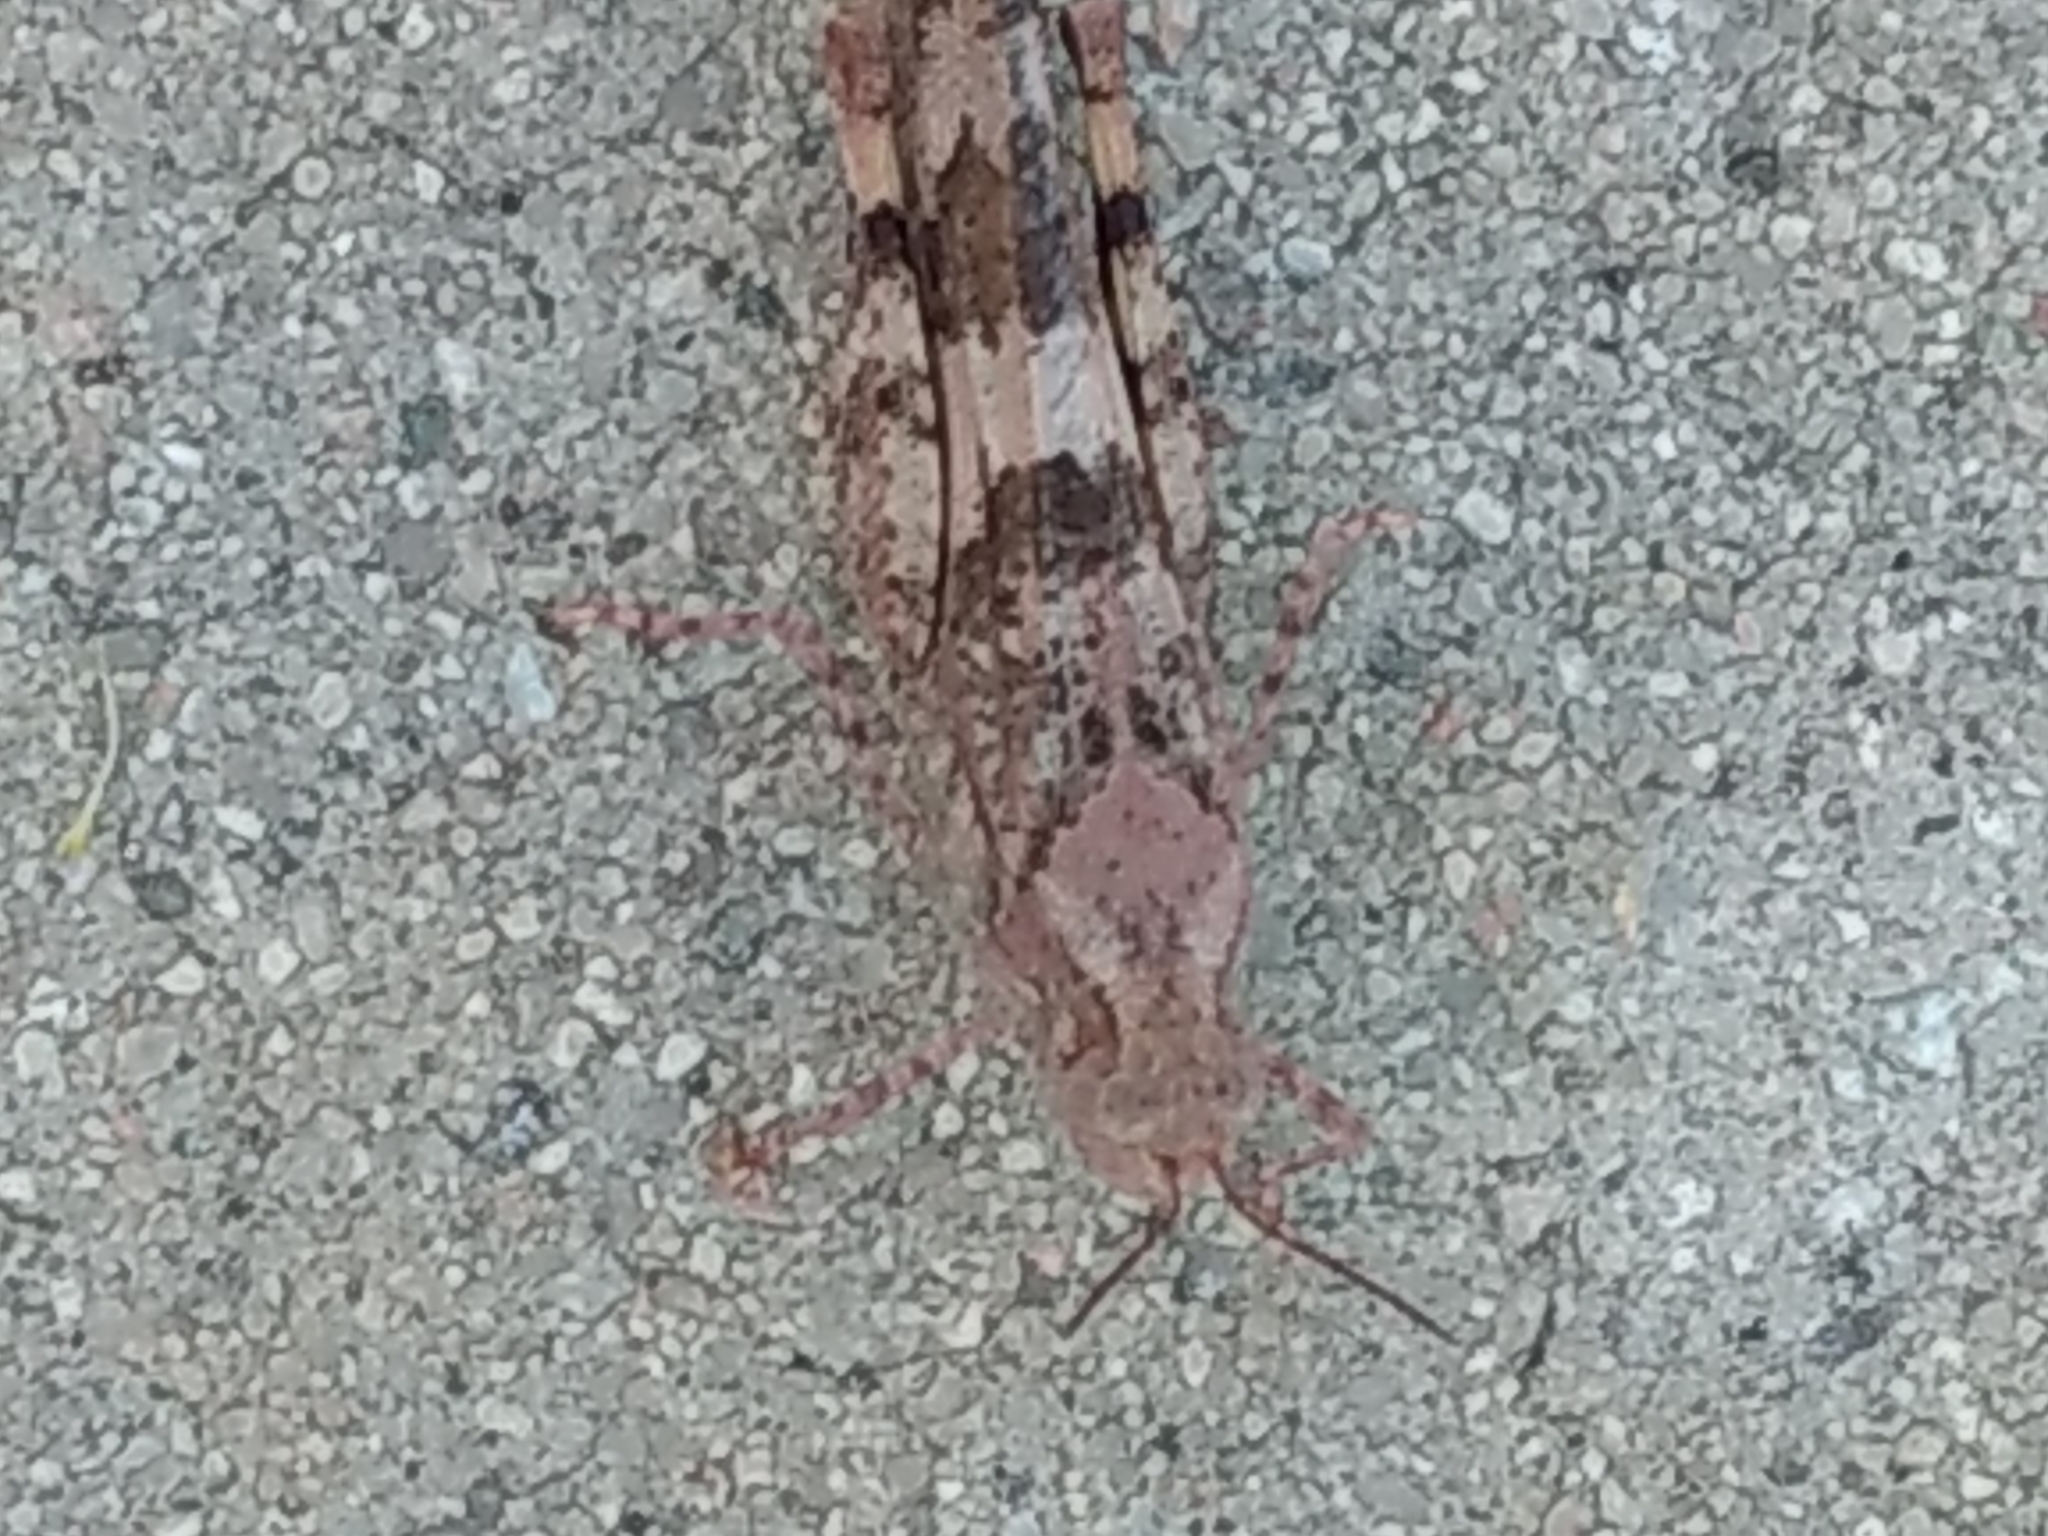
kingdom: Animalia
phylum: Arthropoda
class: Insecta
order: Orthoptera
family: Acrididae
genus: Trimerotropis
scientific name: Trimerotropis pallidipennis
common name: Pallid-winged grasshopper
